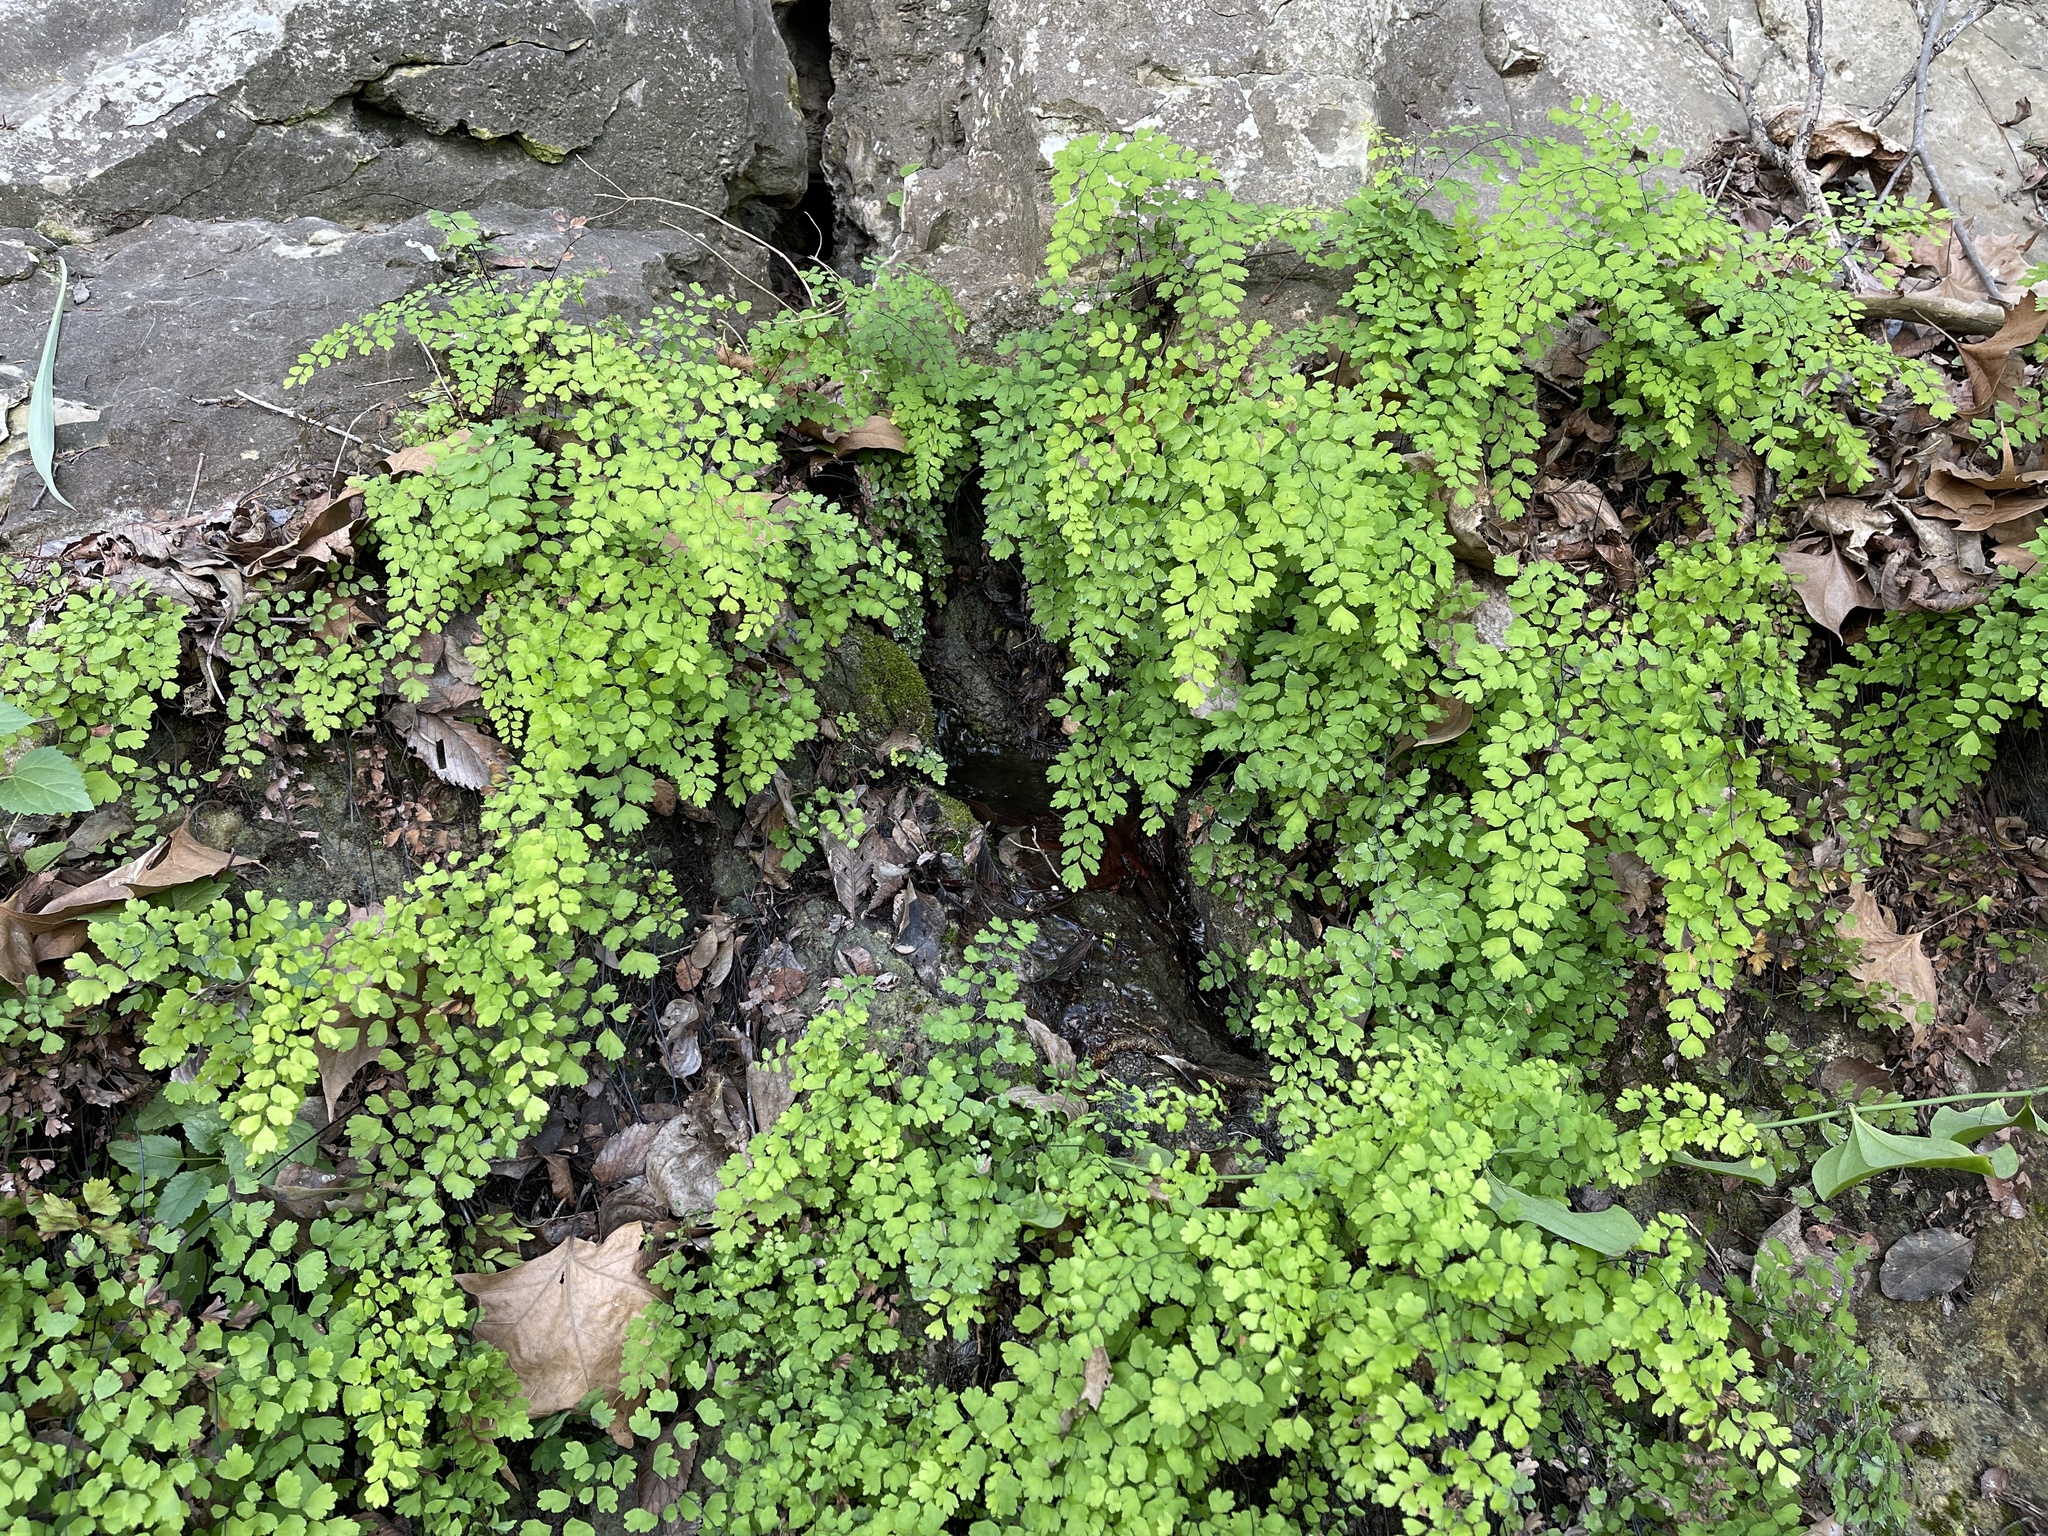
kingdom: Plantae
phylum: Tracheophyta
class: Polypodiopsida
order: Polypodiales
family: Pteridaceae
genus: Adiantum
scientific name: Adiantum capillus-veneris
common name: Maidenhair fern
